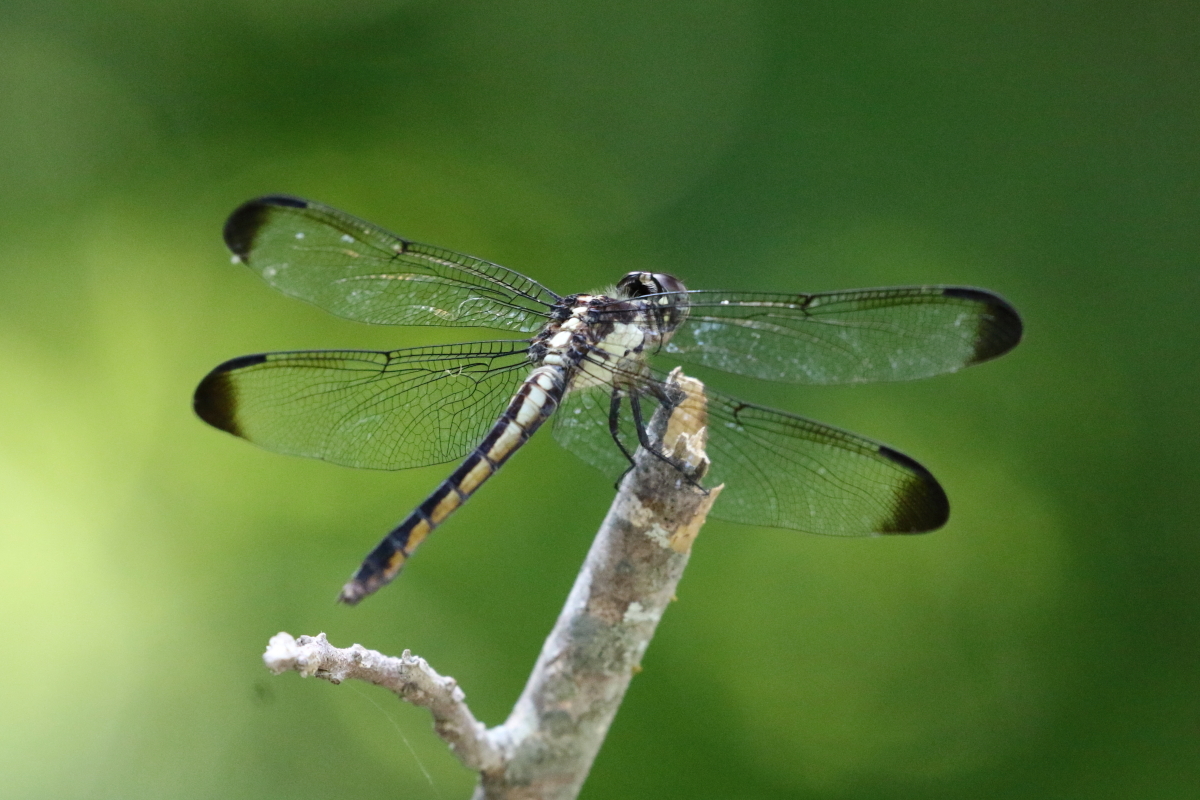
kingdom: Animalia
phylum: Arthropoda
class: Insecta
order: Odonata
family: Libellulidae
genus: Libellula
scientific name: Libellula incesta
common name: Slaty skimmer
